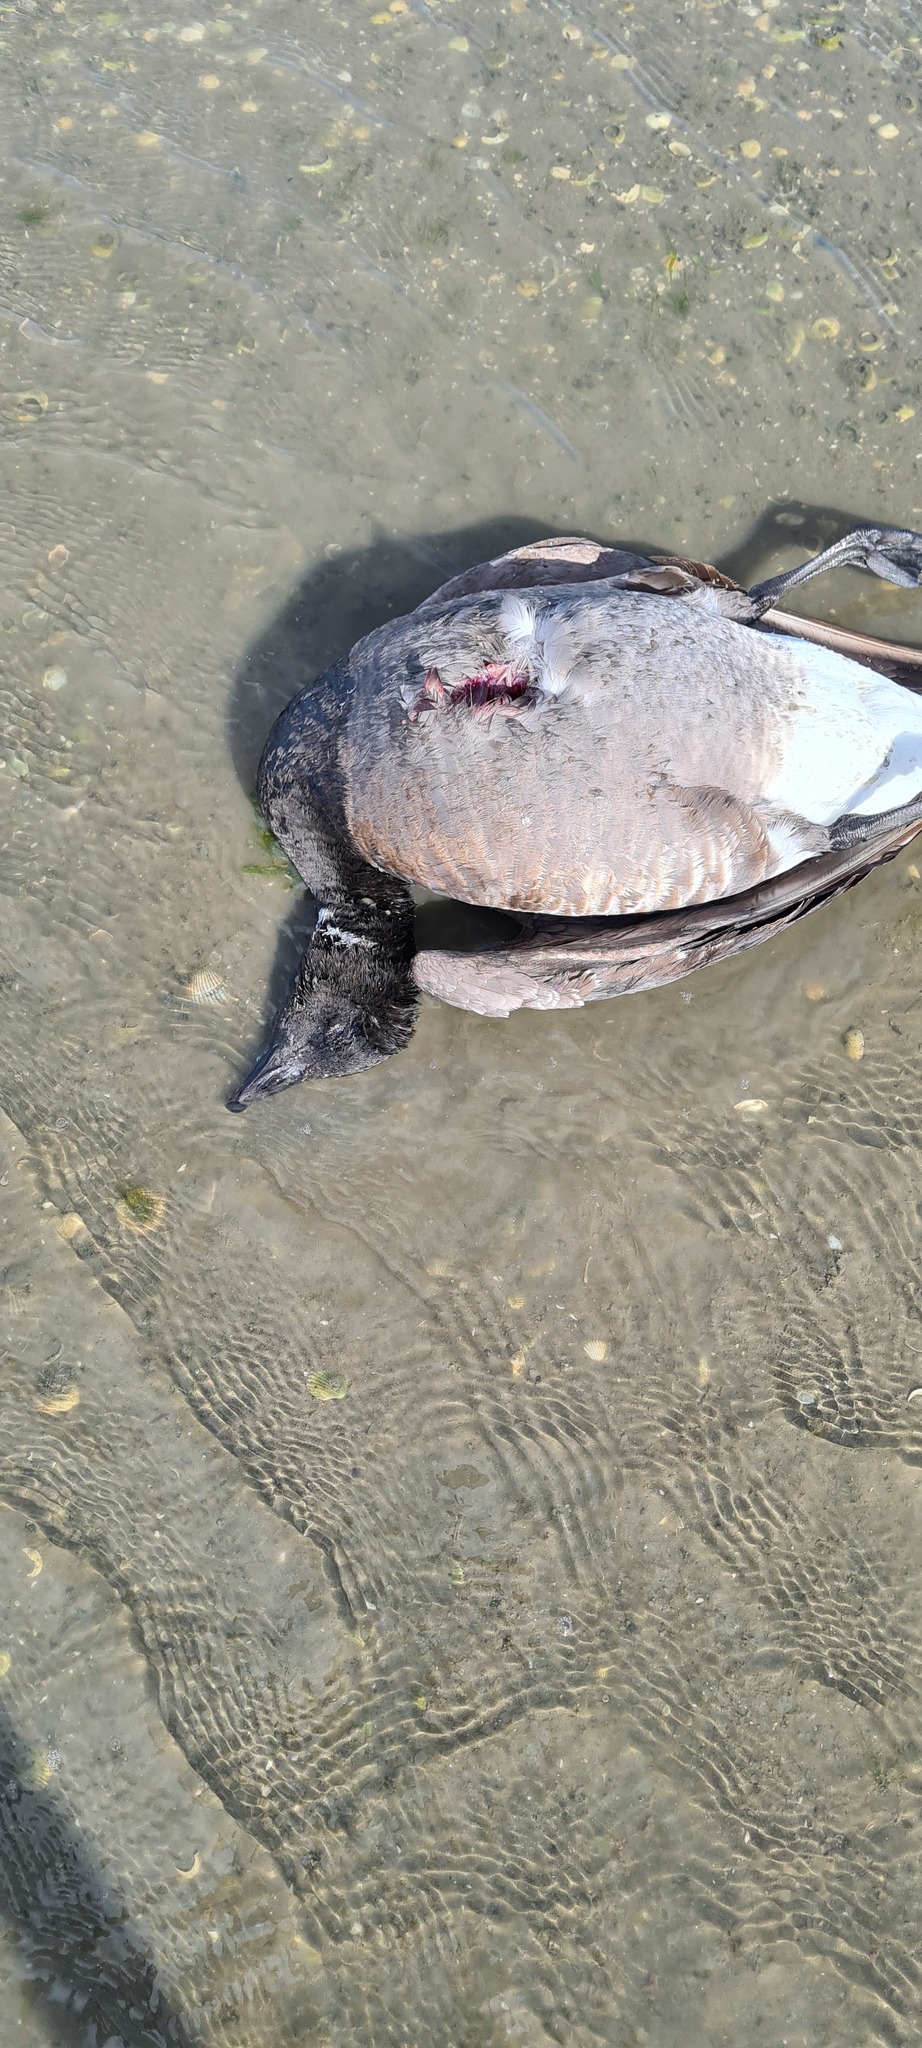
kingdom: Animalia
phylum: Chordata
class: Aves
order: Anseriformes
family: Anatidae
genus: Branta
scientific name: Branta bernicla
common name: Brant goose
